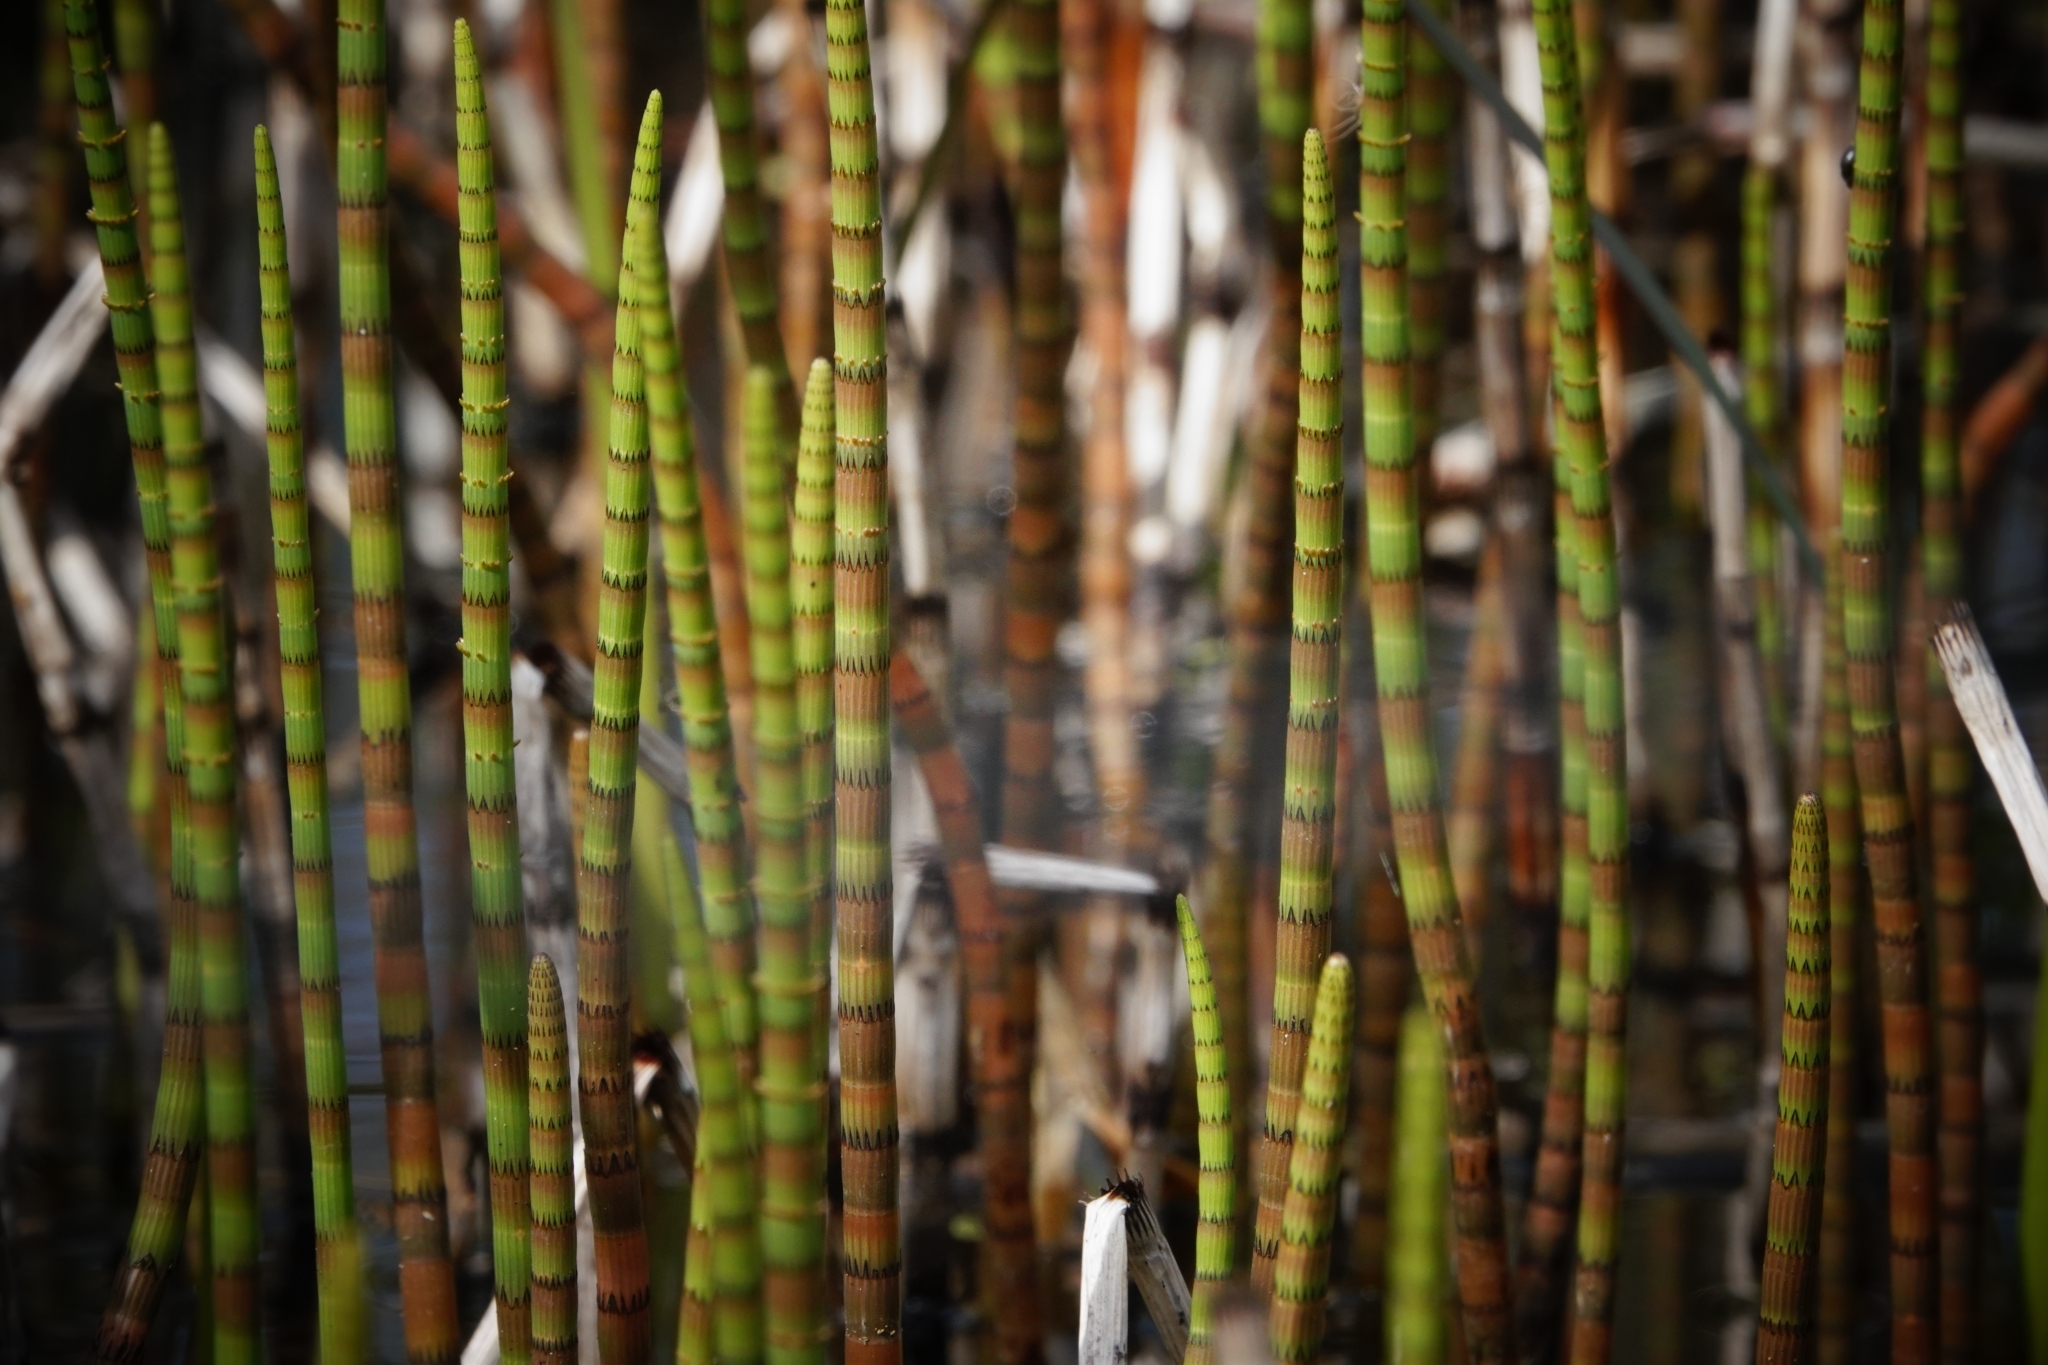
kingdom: Plantae
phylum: Tracheophyta
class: Polypodiopsida
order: Equisetales
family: Equisetaceae
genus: Equisetum
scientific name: Equisetum fluviatile
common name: Water horsetail
